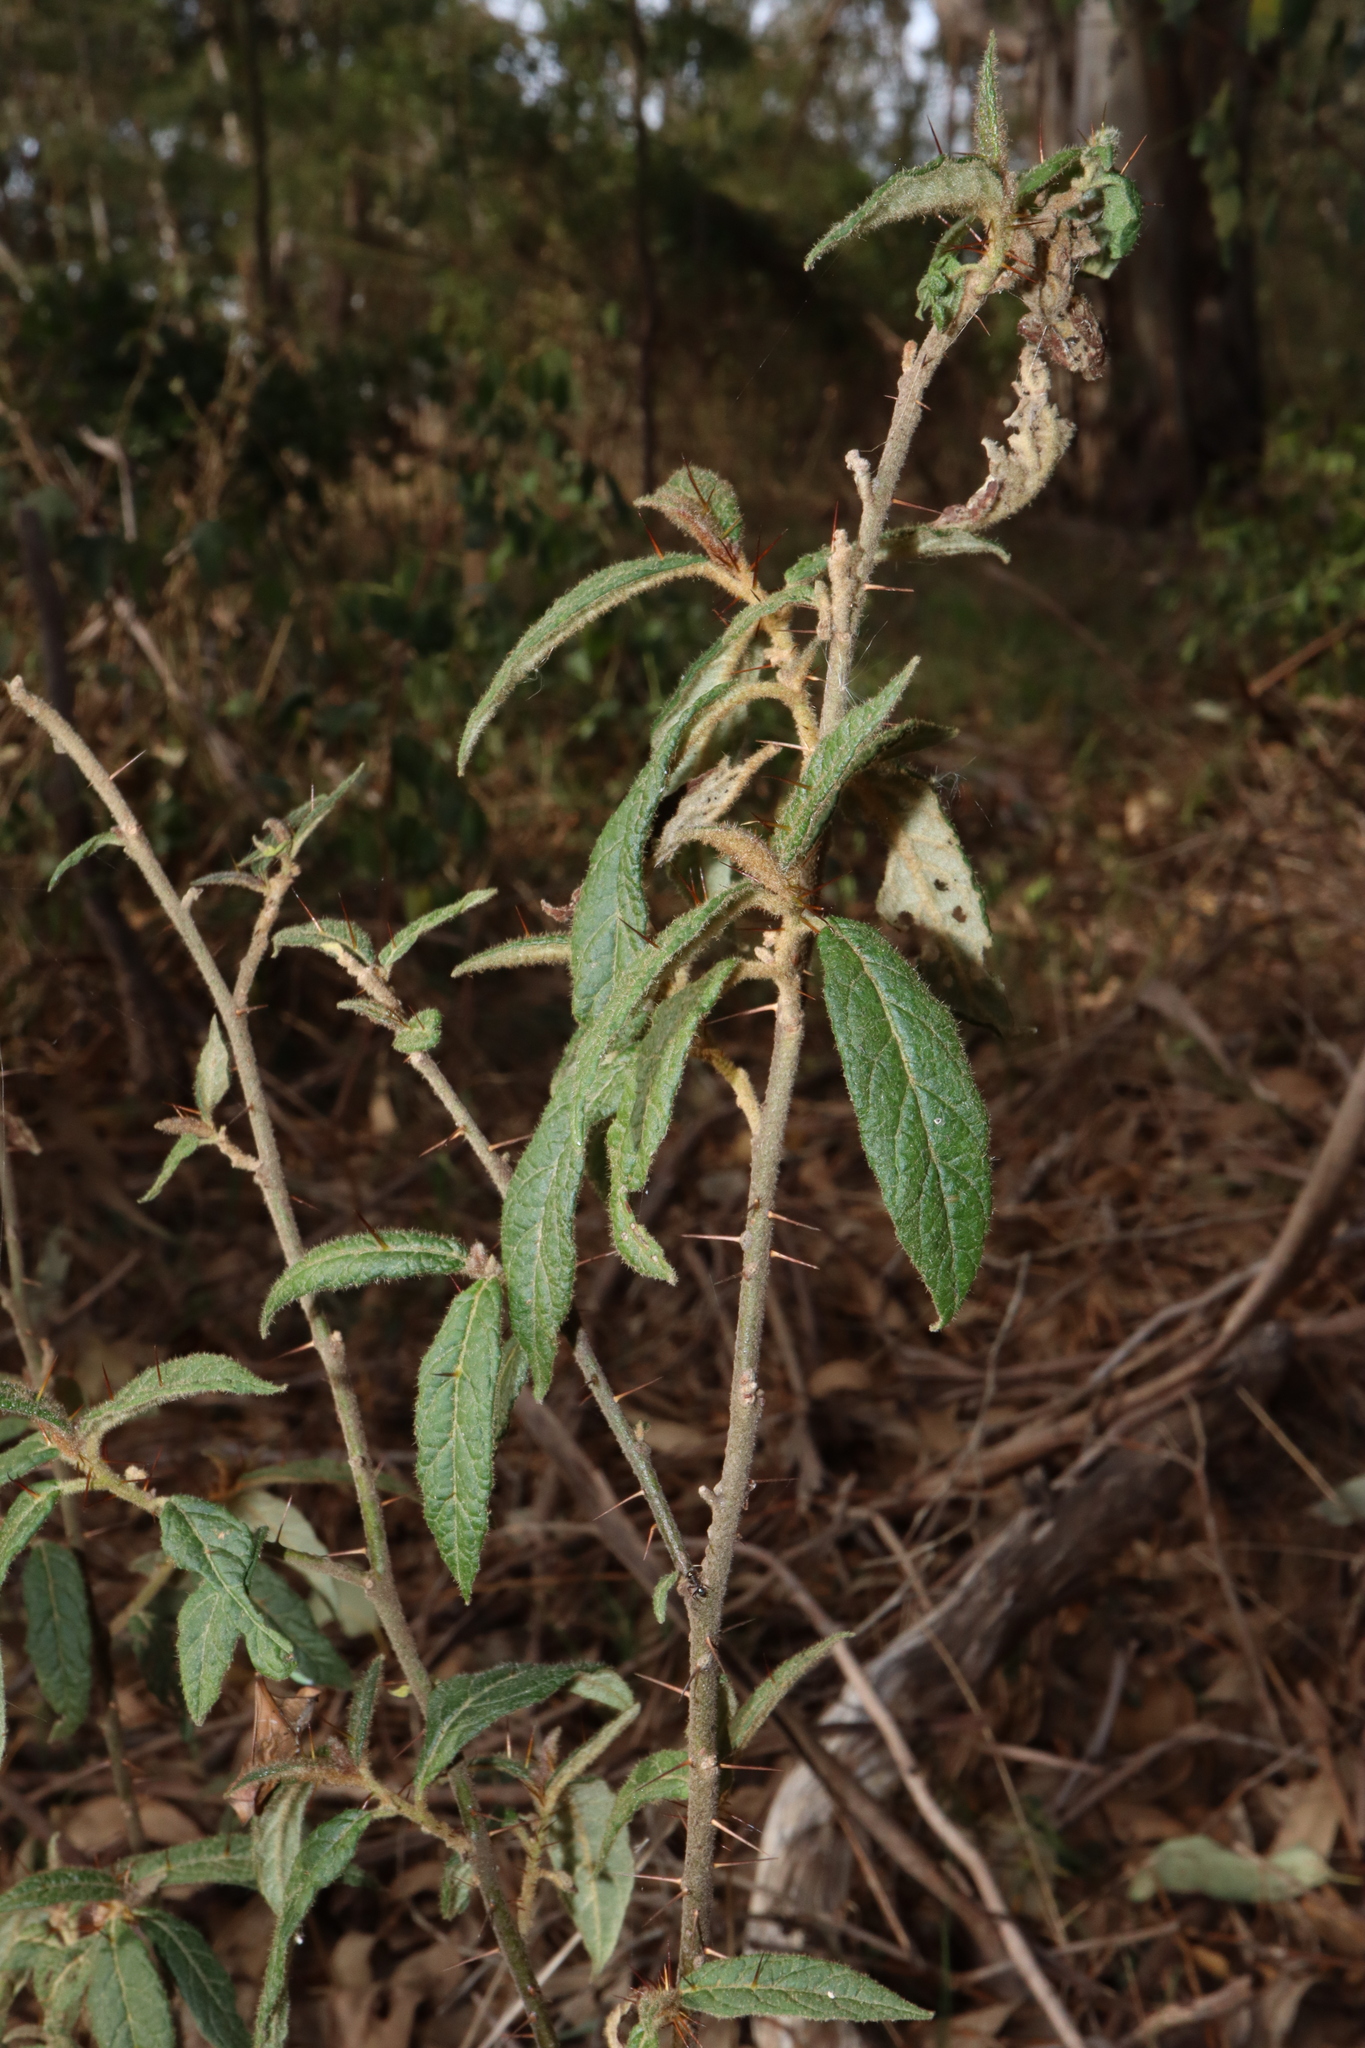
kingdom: Plantae
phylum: Tracheophyta
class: Magnoliopsida
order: Solanales
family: Solanaceae
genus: Solanum
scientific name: Solanum stelligerum
